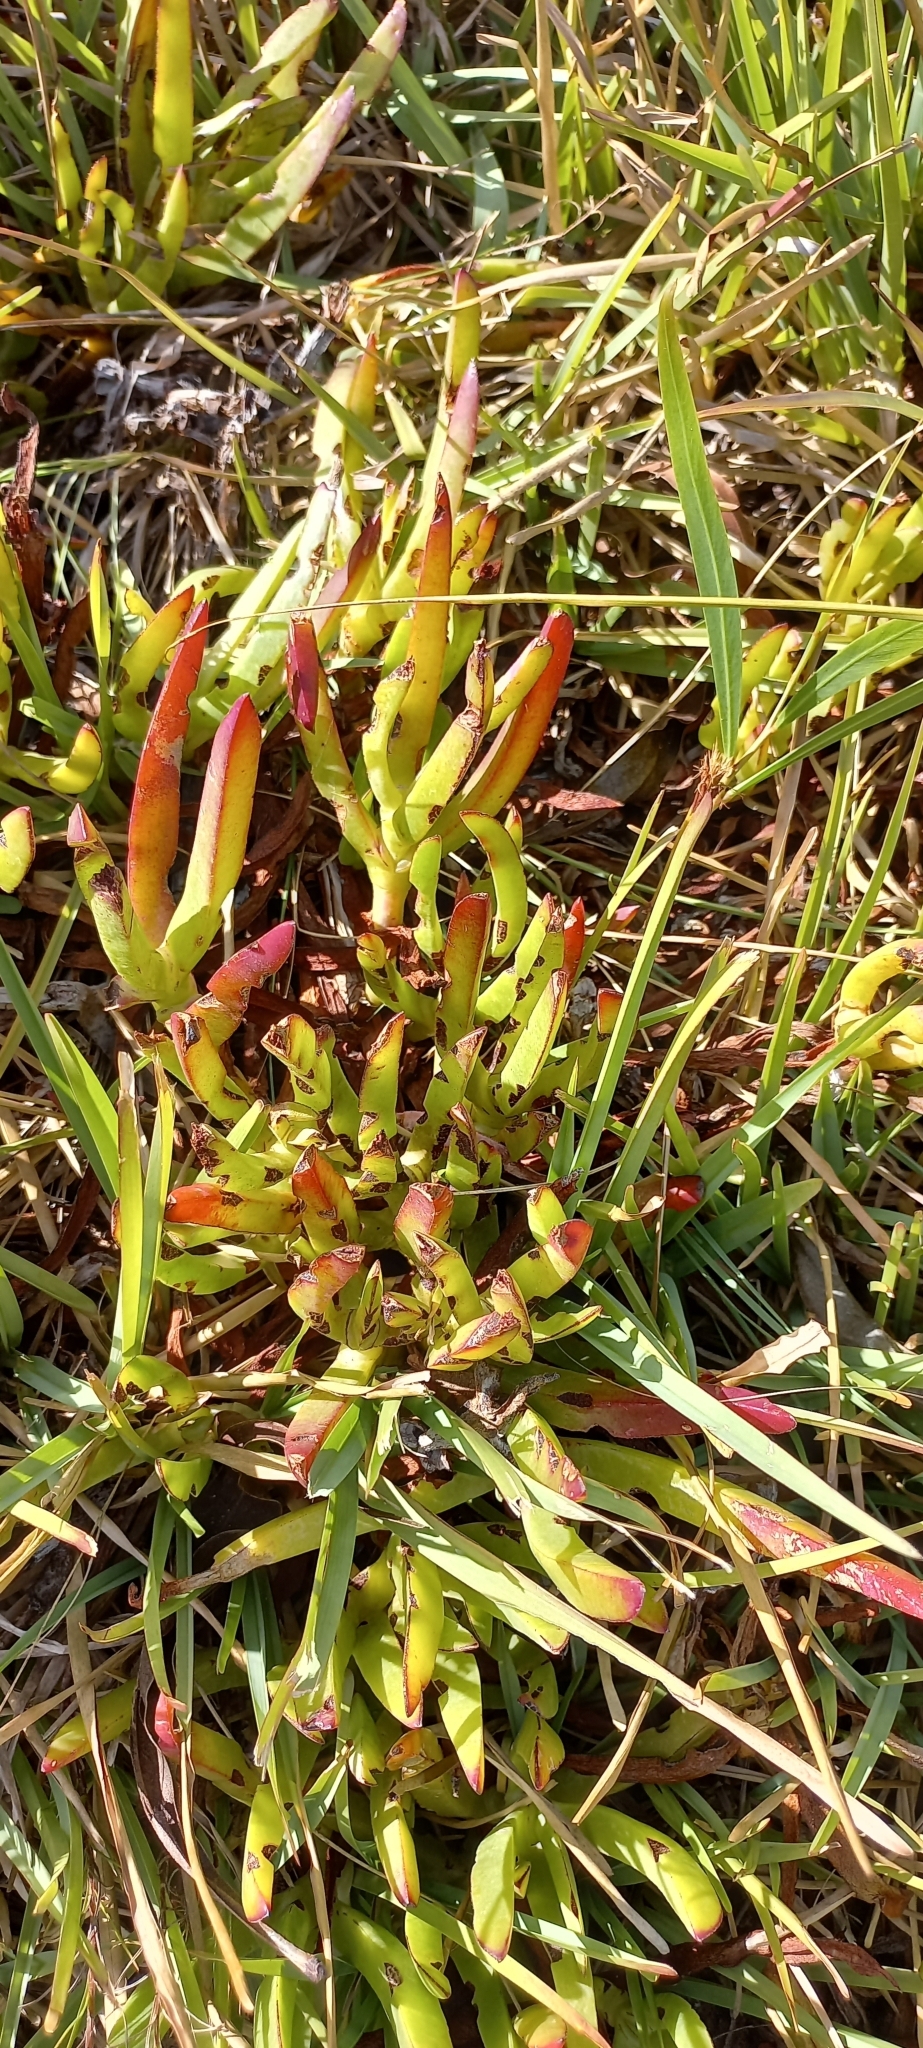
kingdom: Plantae
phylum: Tracheophyta
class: Magnoliopsida
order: Caryophyllales
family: Aizoaceae
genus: Carpobrotus
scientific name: Carpobrotus edulis
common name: Hottentot-fig
